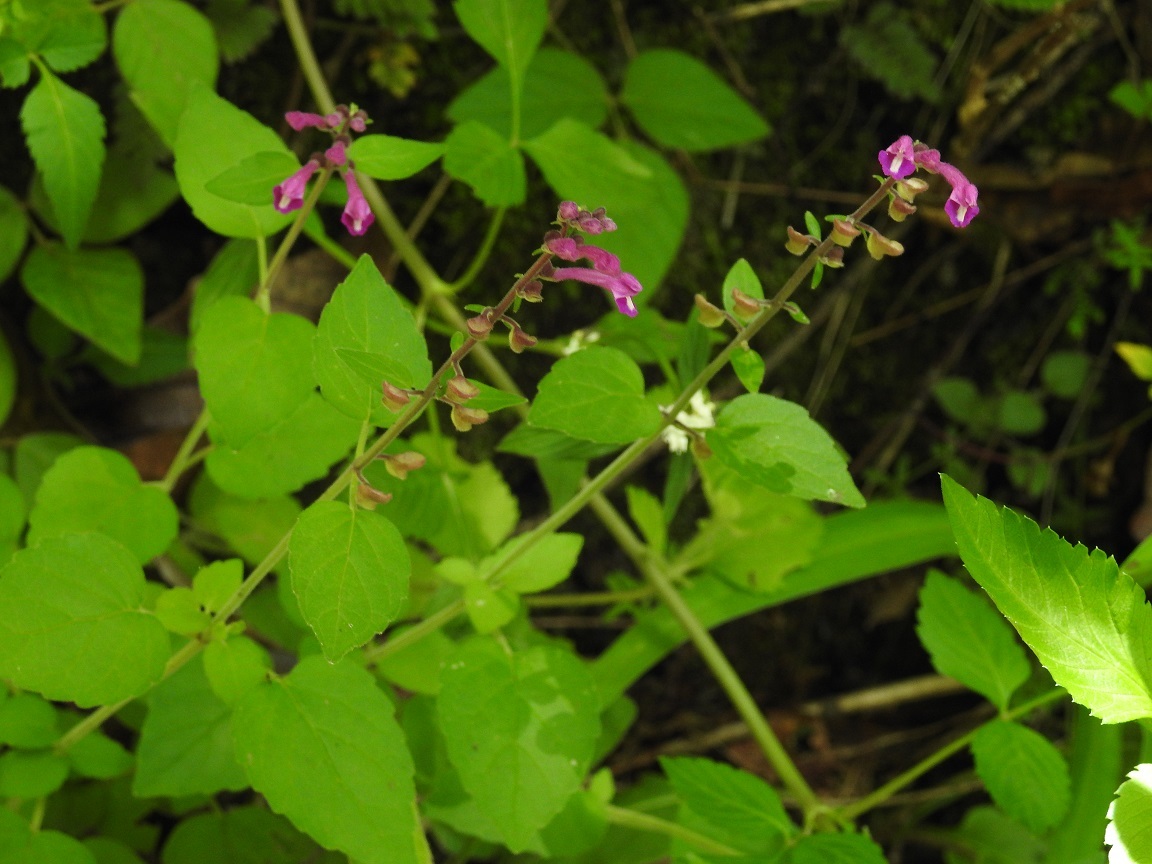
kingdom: Plantae
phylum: Tracheophyta
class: Magnoliopsida
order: Lamiales
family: Lamiaceae
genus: Scutellaria
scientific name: Scutellaria guatemalensis
